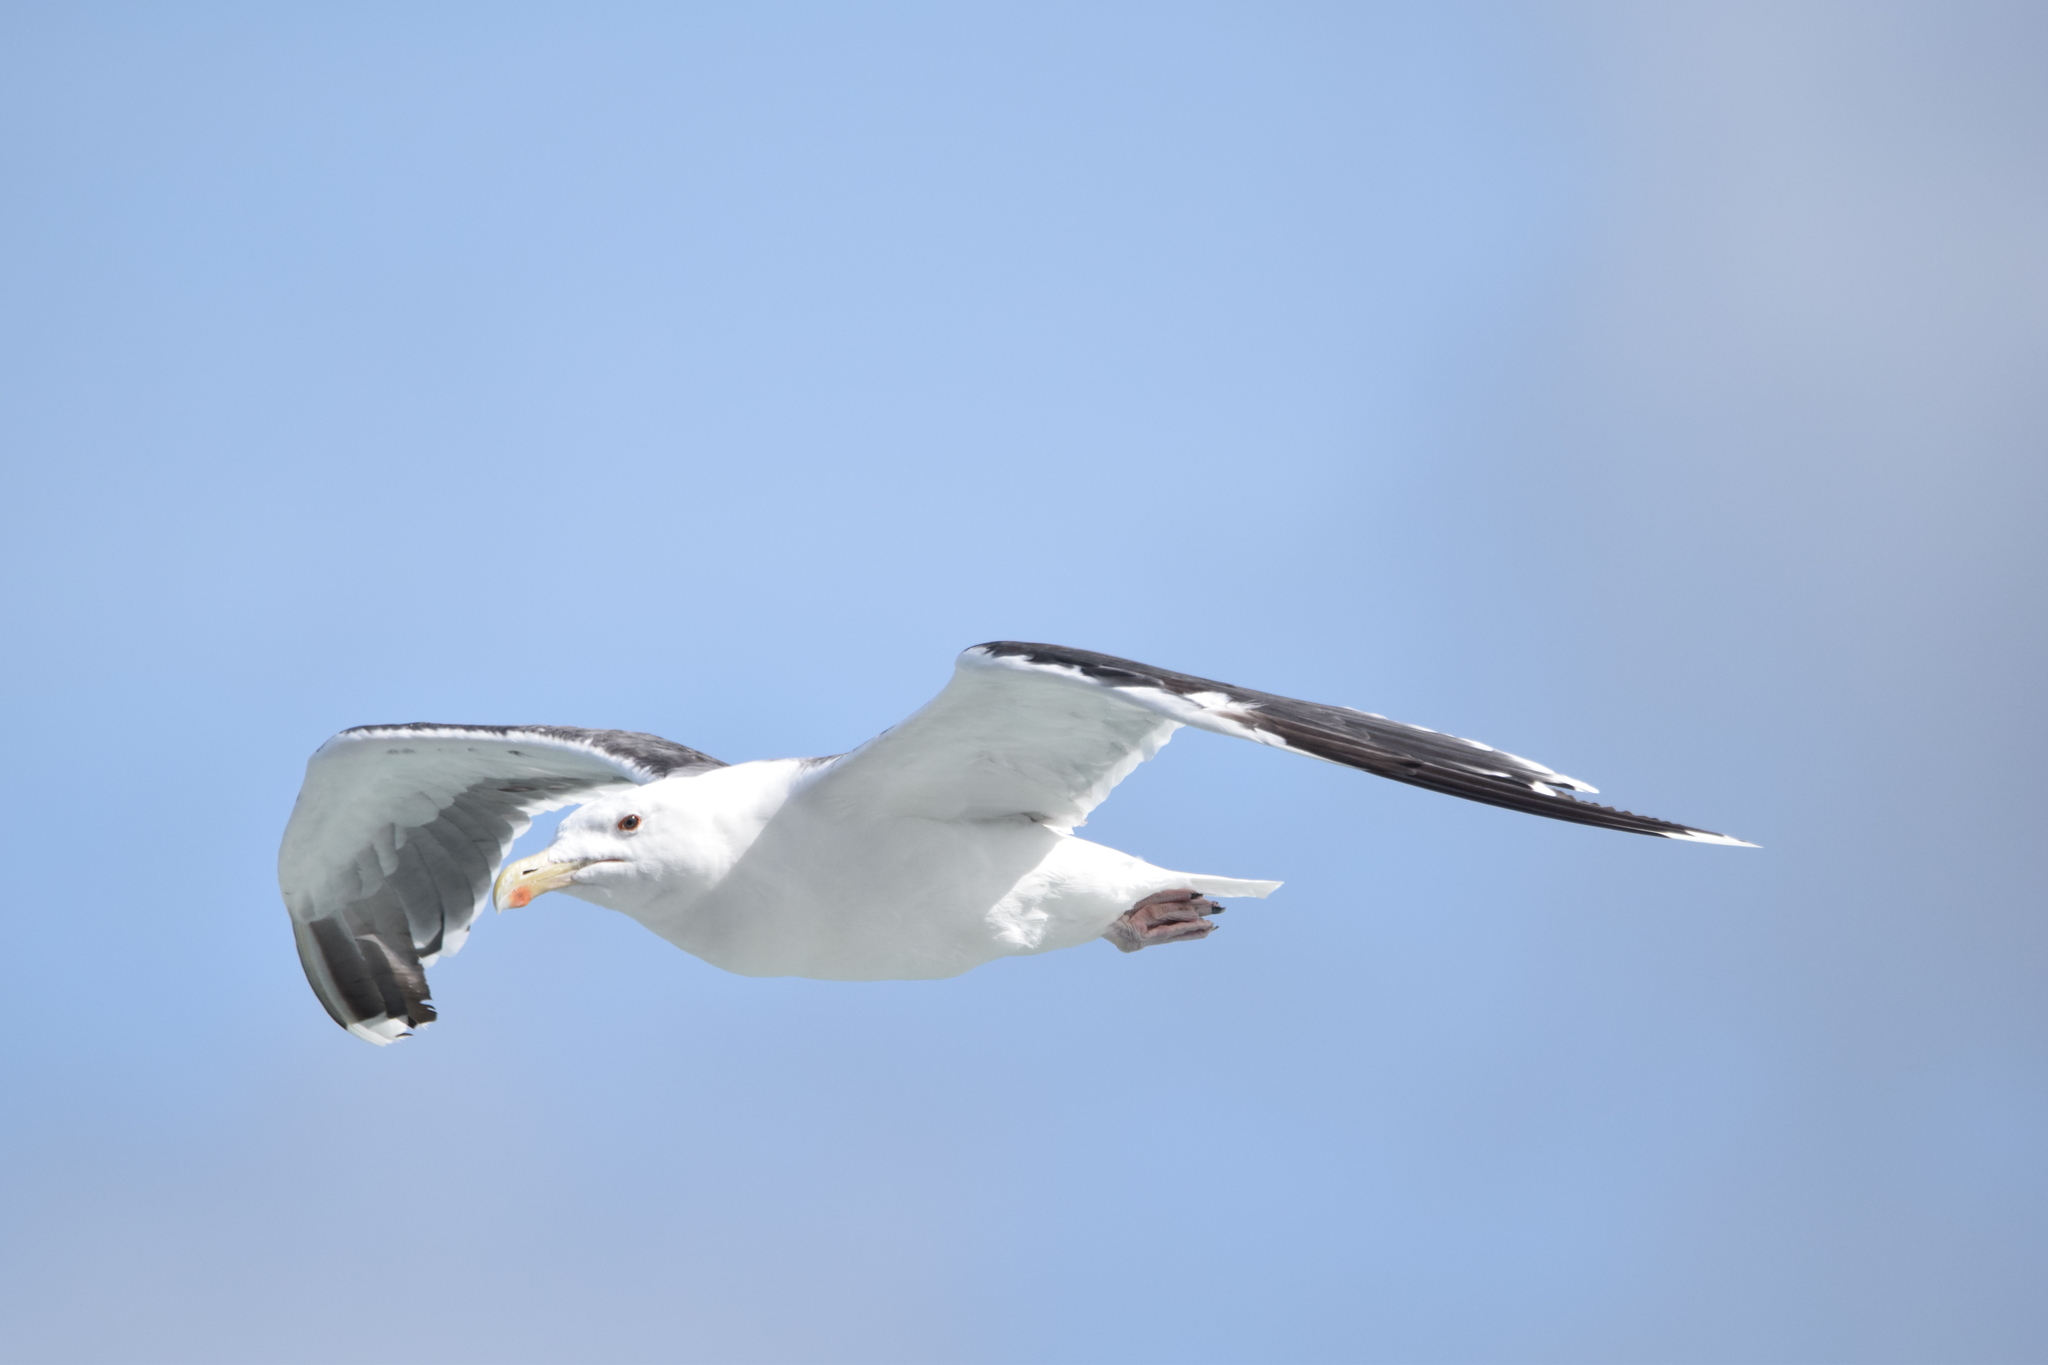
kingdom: Animalia
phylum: Chordata
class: Aves
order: Charadriiformes
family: Laridae
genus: Larus
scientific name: Larus marinus
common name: Great black-backed gull
